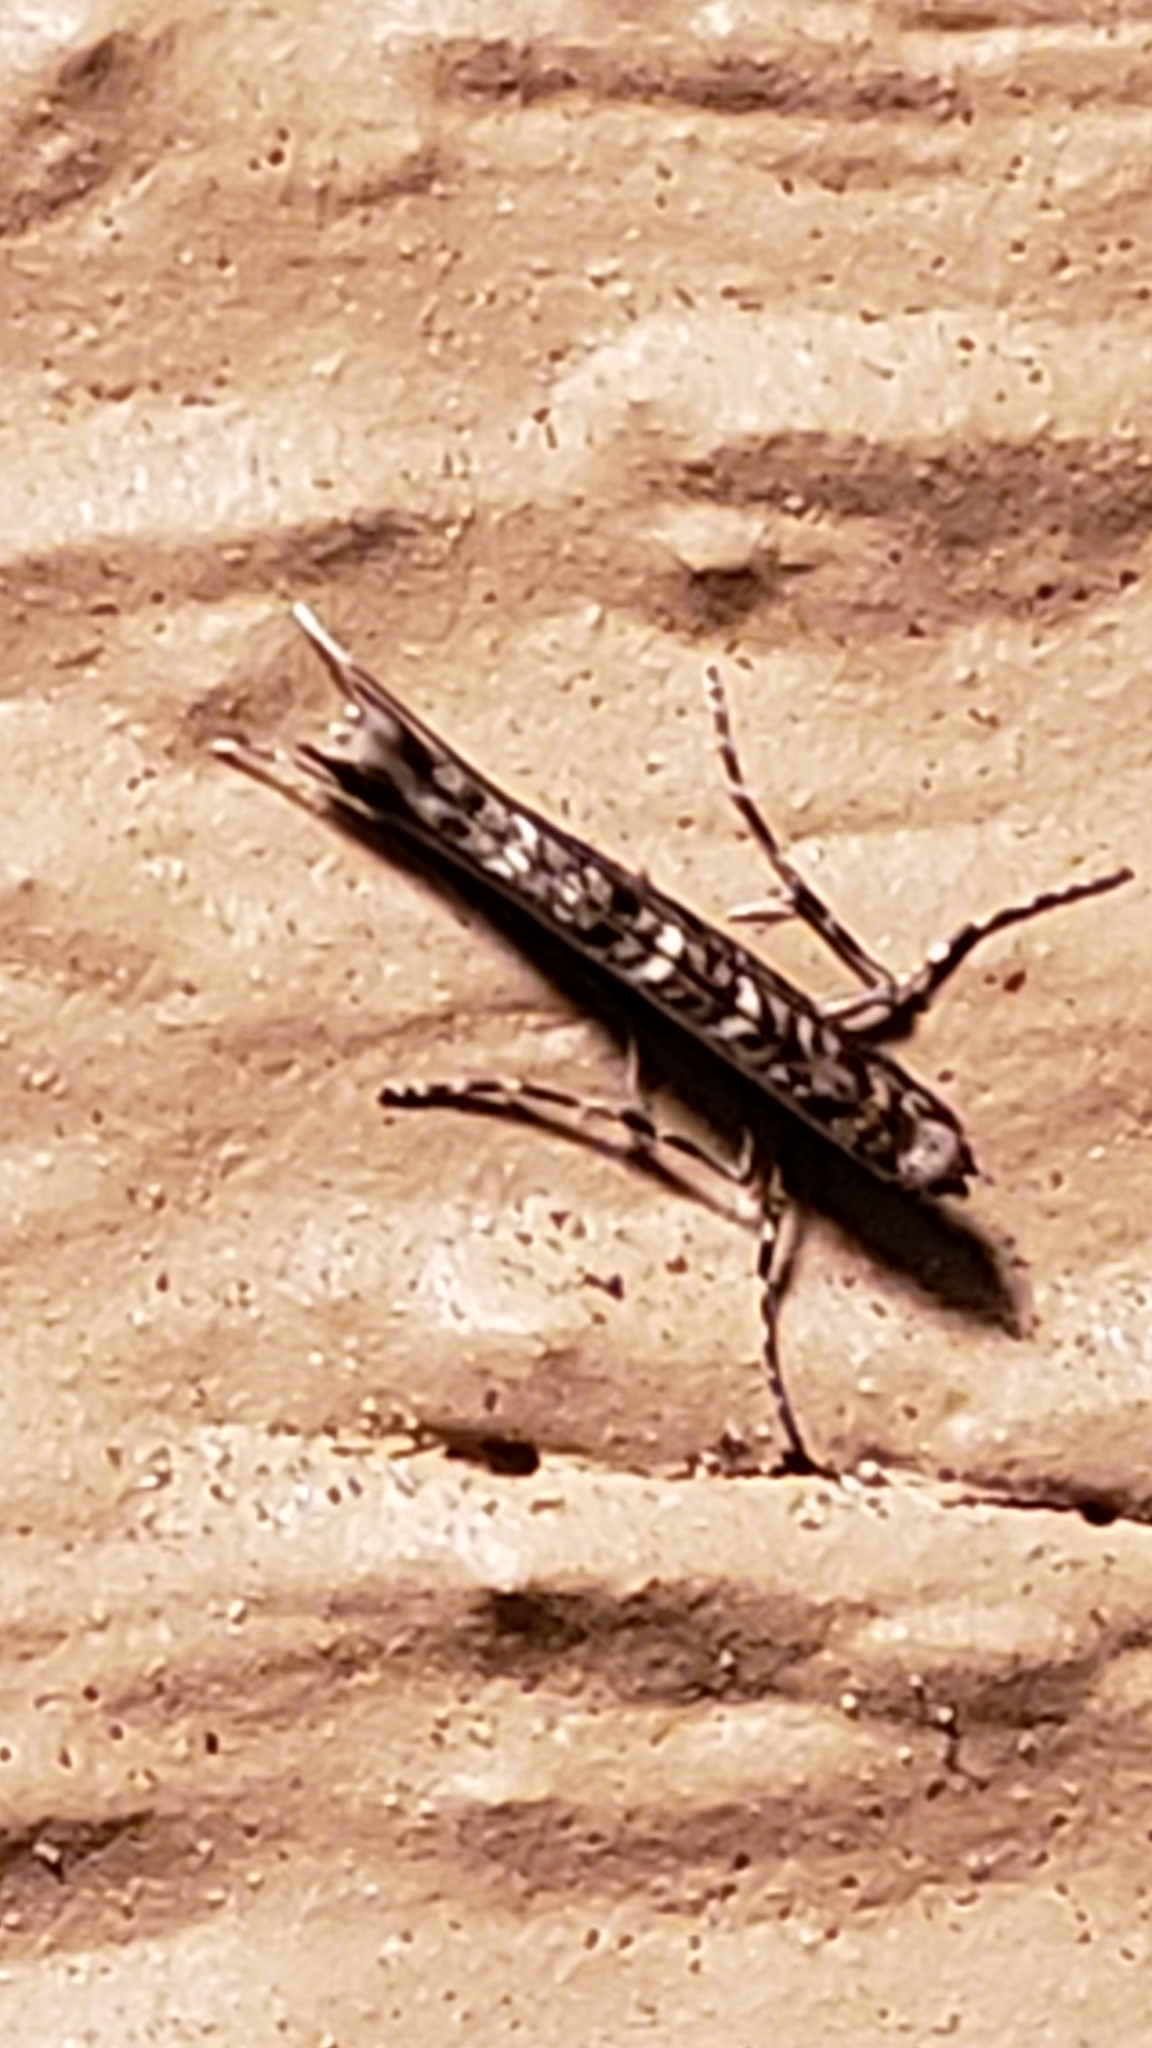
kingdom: Animalia
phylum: Arthropoda
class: Insecta
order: Lepidoptera
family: Gracillariidae
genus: Neurobathra
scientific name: Neurobathra strigifinitella
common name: Finite-channeled leafminer moth
